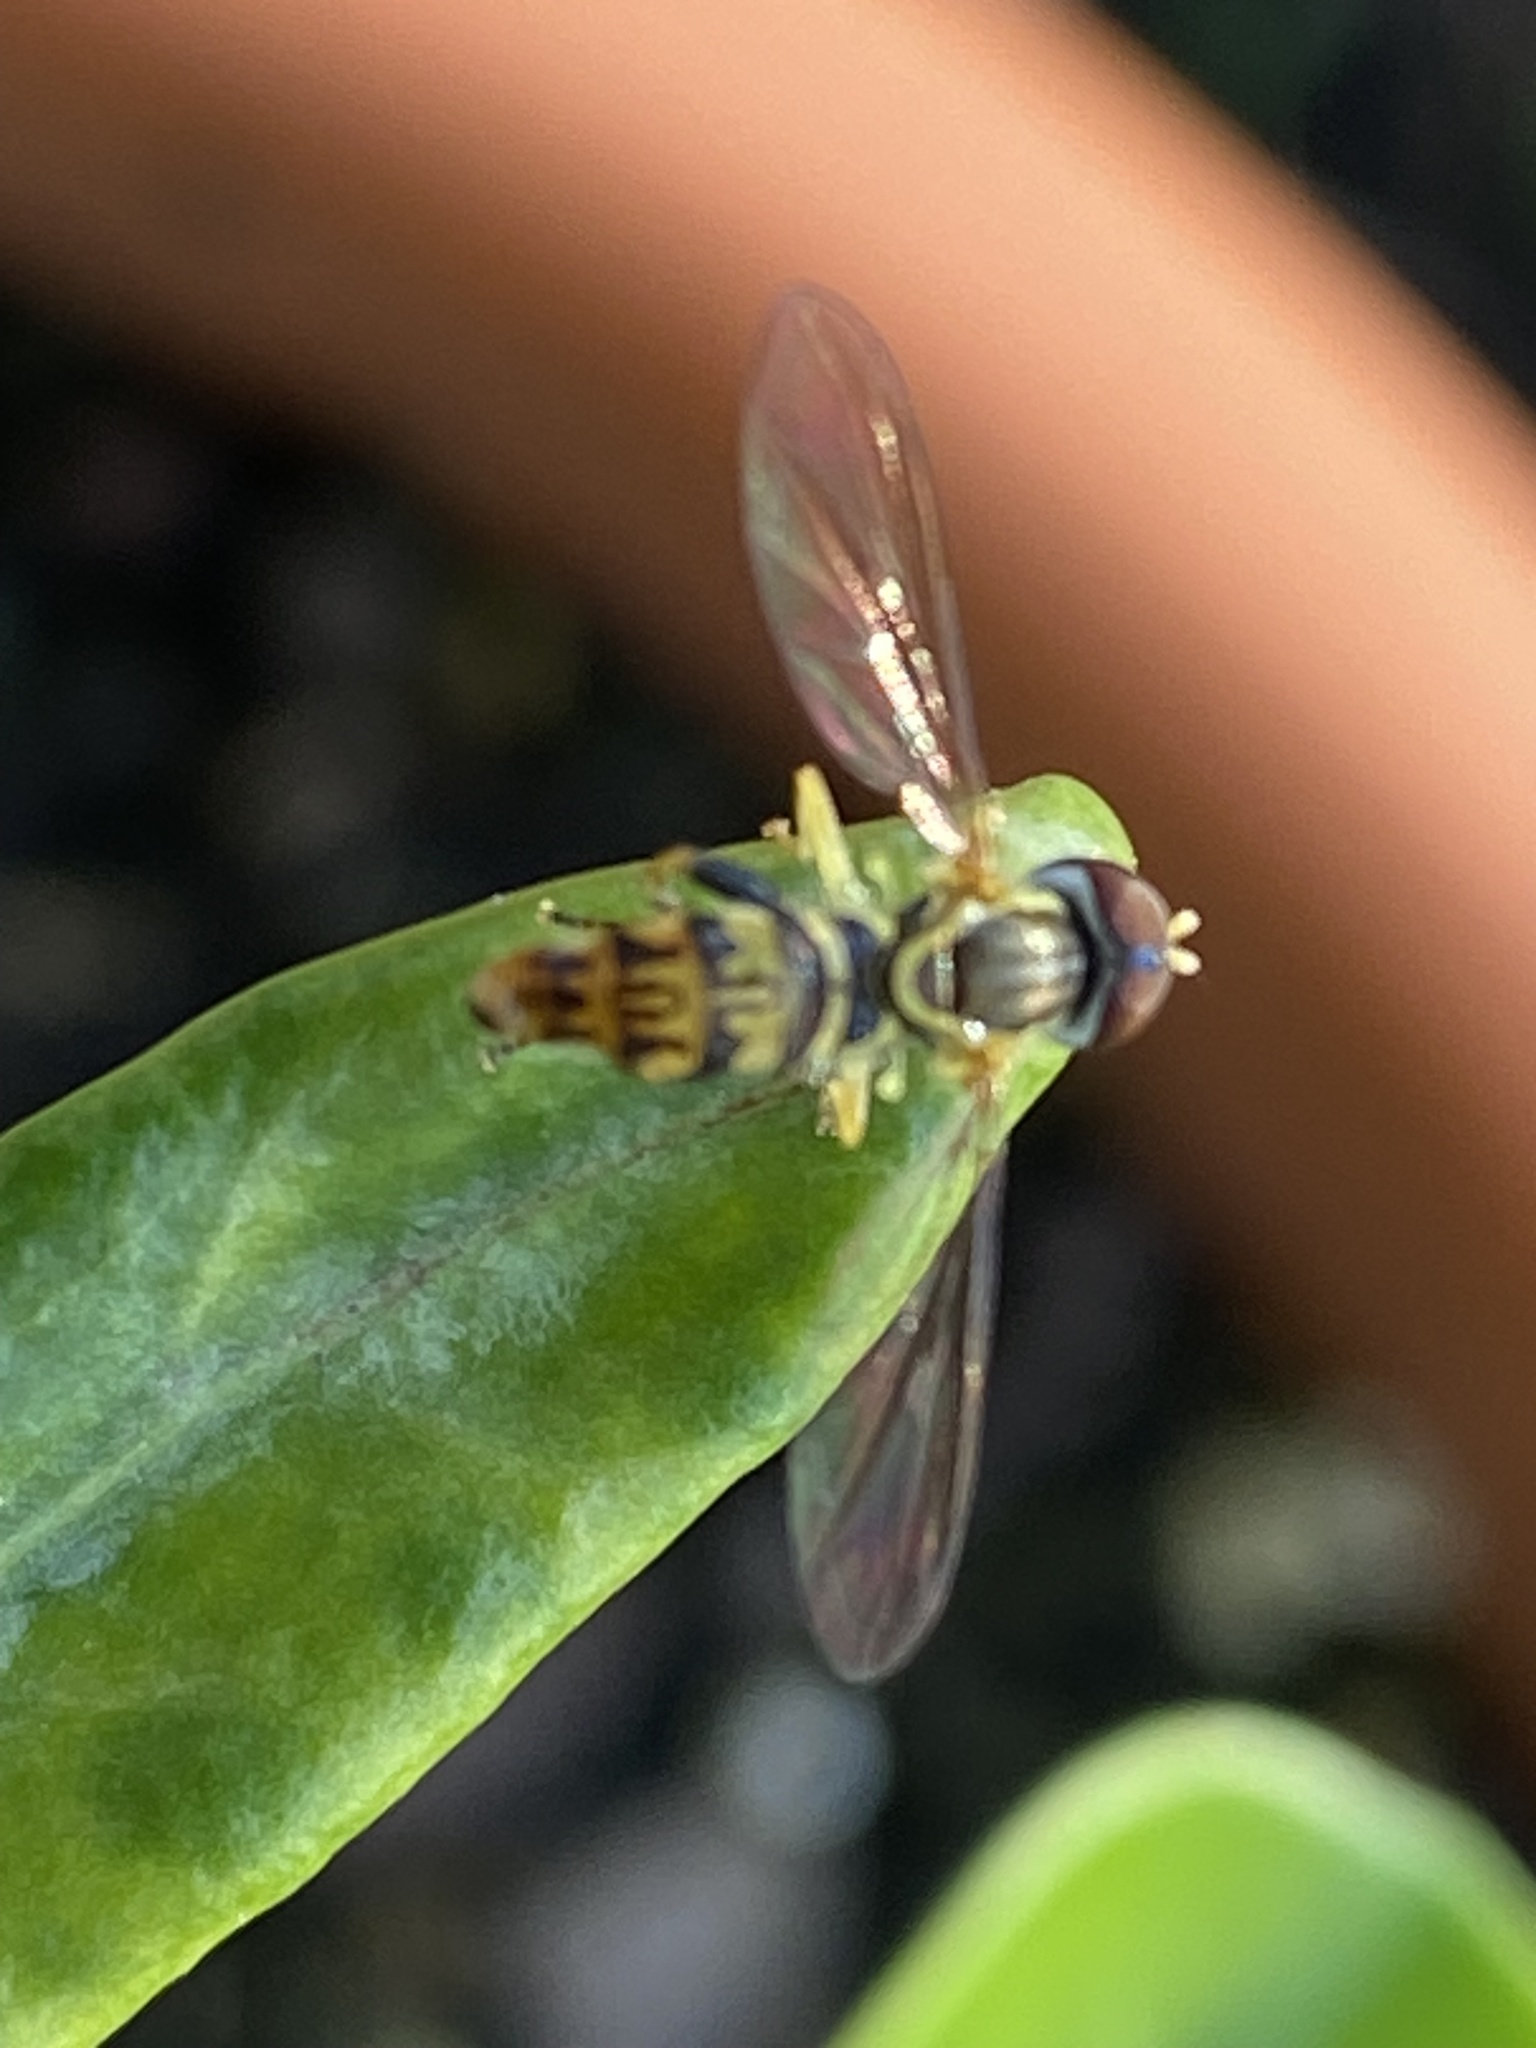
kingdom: Animalia
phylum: Arthropoda
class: Insecta
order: Diptera
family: Syrphidae
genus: Toxomerus
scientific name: Toxomerus geminatus
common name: Eastern calligrapher
